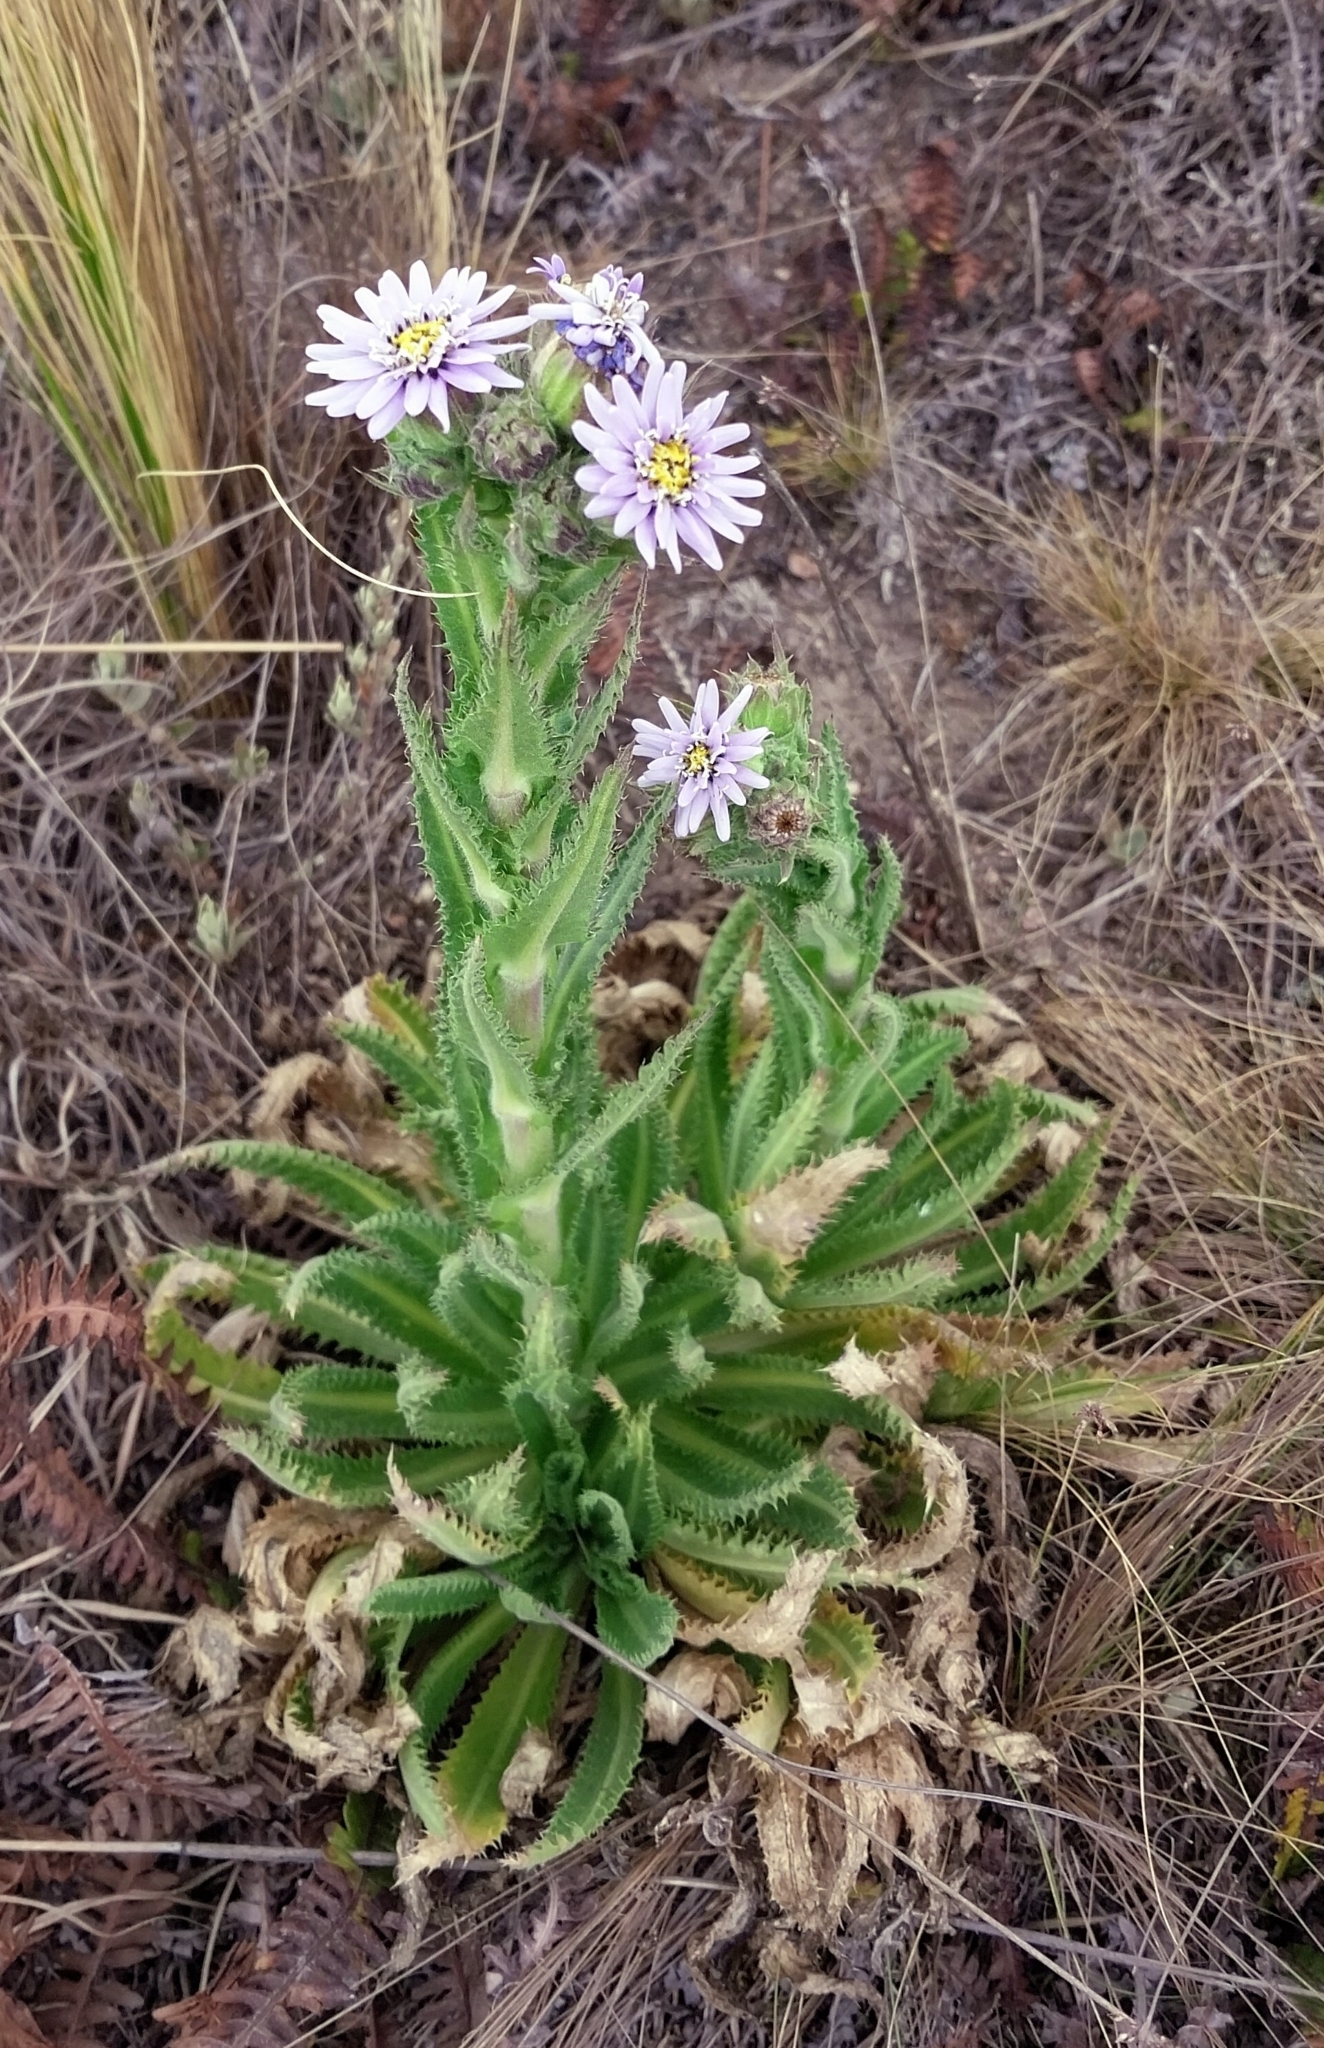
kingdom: Plantae
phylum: Tracheophyta
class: Magnoliopsida
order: Asterales
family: Asteraceae
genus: Perezia
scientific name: Perezia multiflora
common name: Perezia
